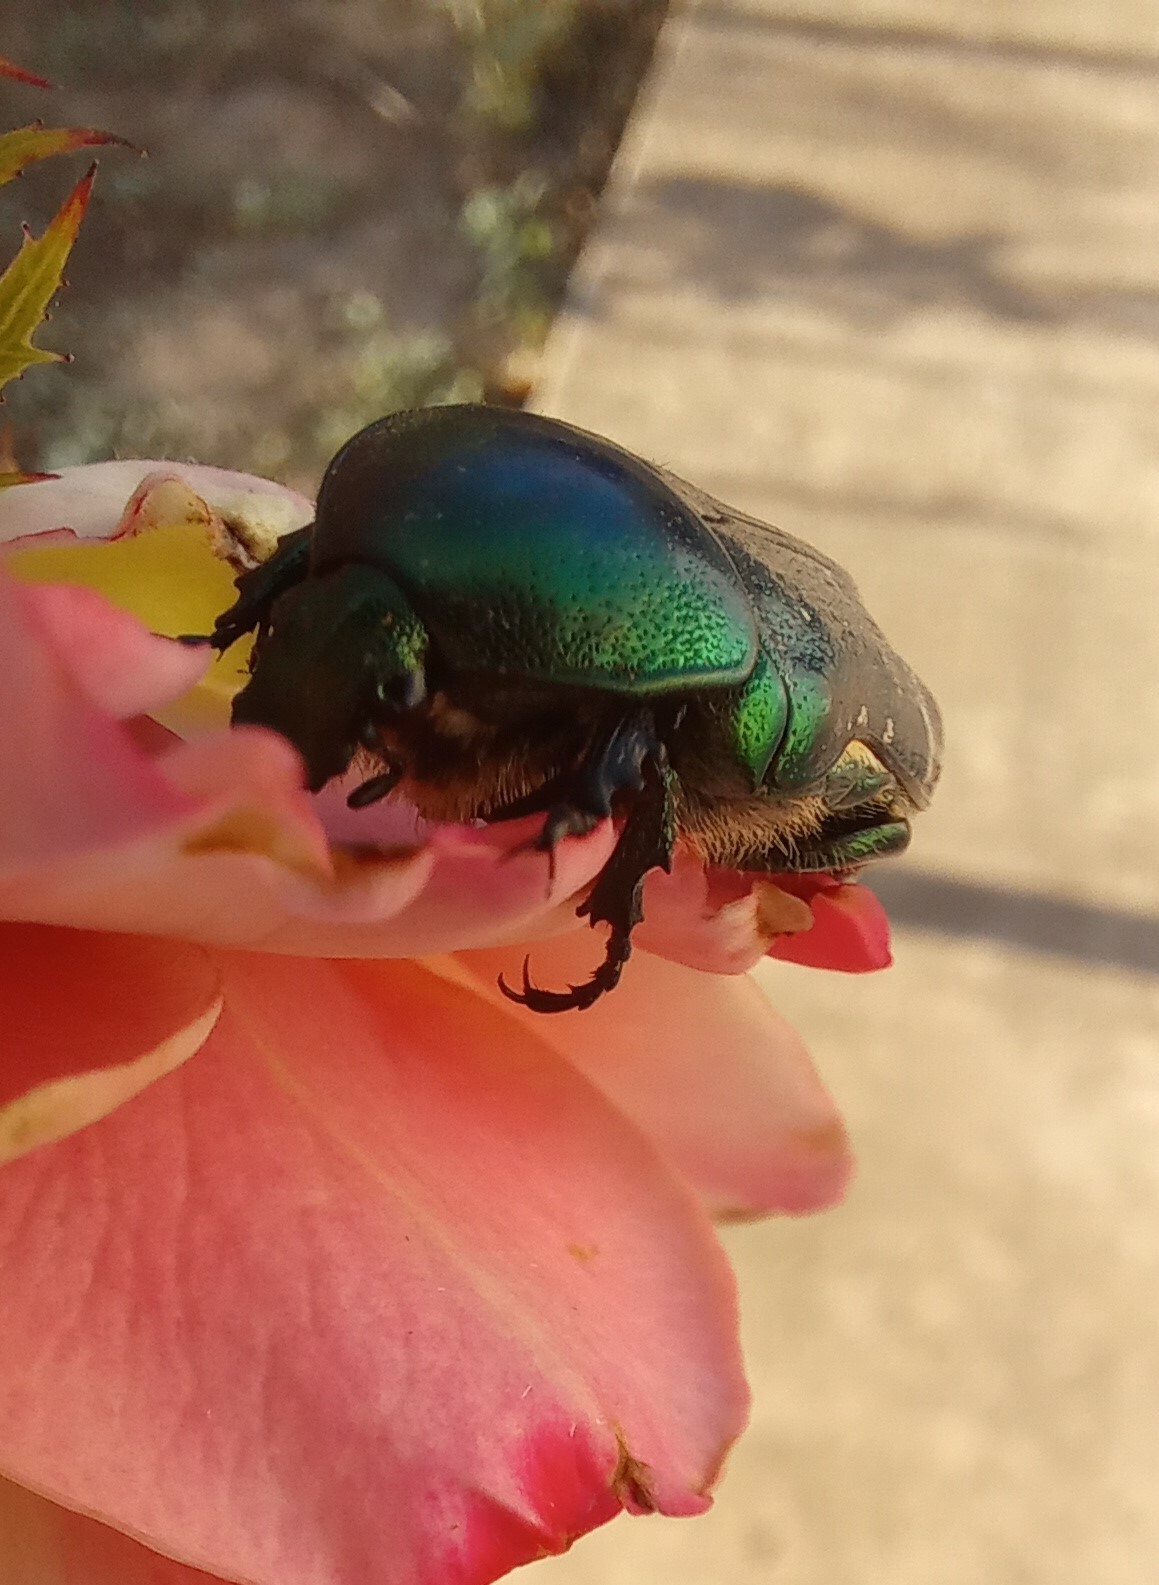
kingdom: Animalia
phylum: Arthropoda
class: Insecta
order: Coleoptera
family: Scarabaeidae
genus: Cetonia
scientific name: Cetonia aurata
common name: Rose chafer
